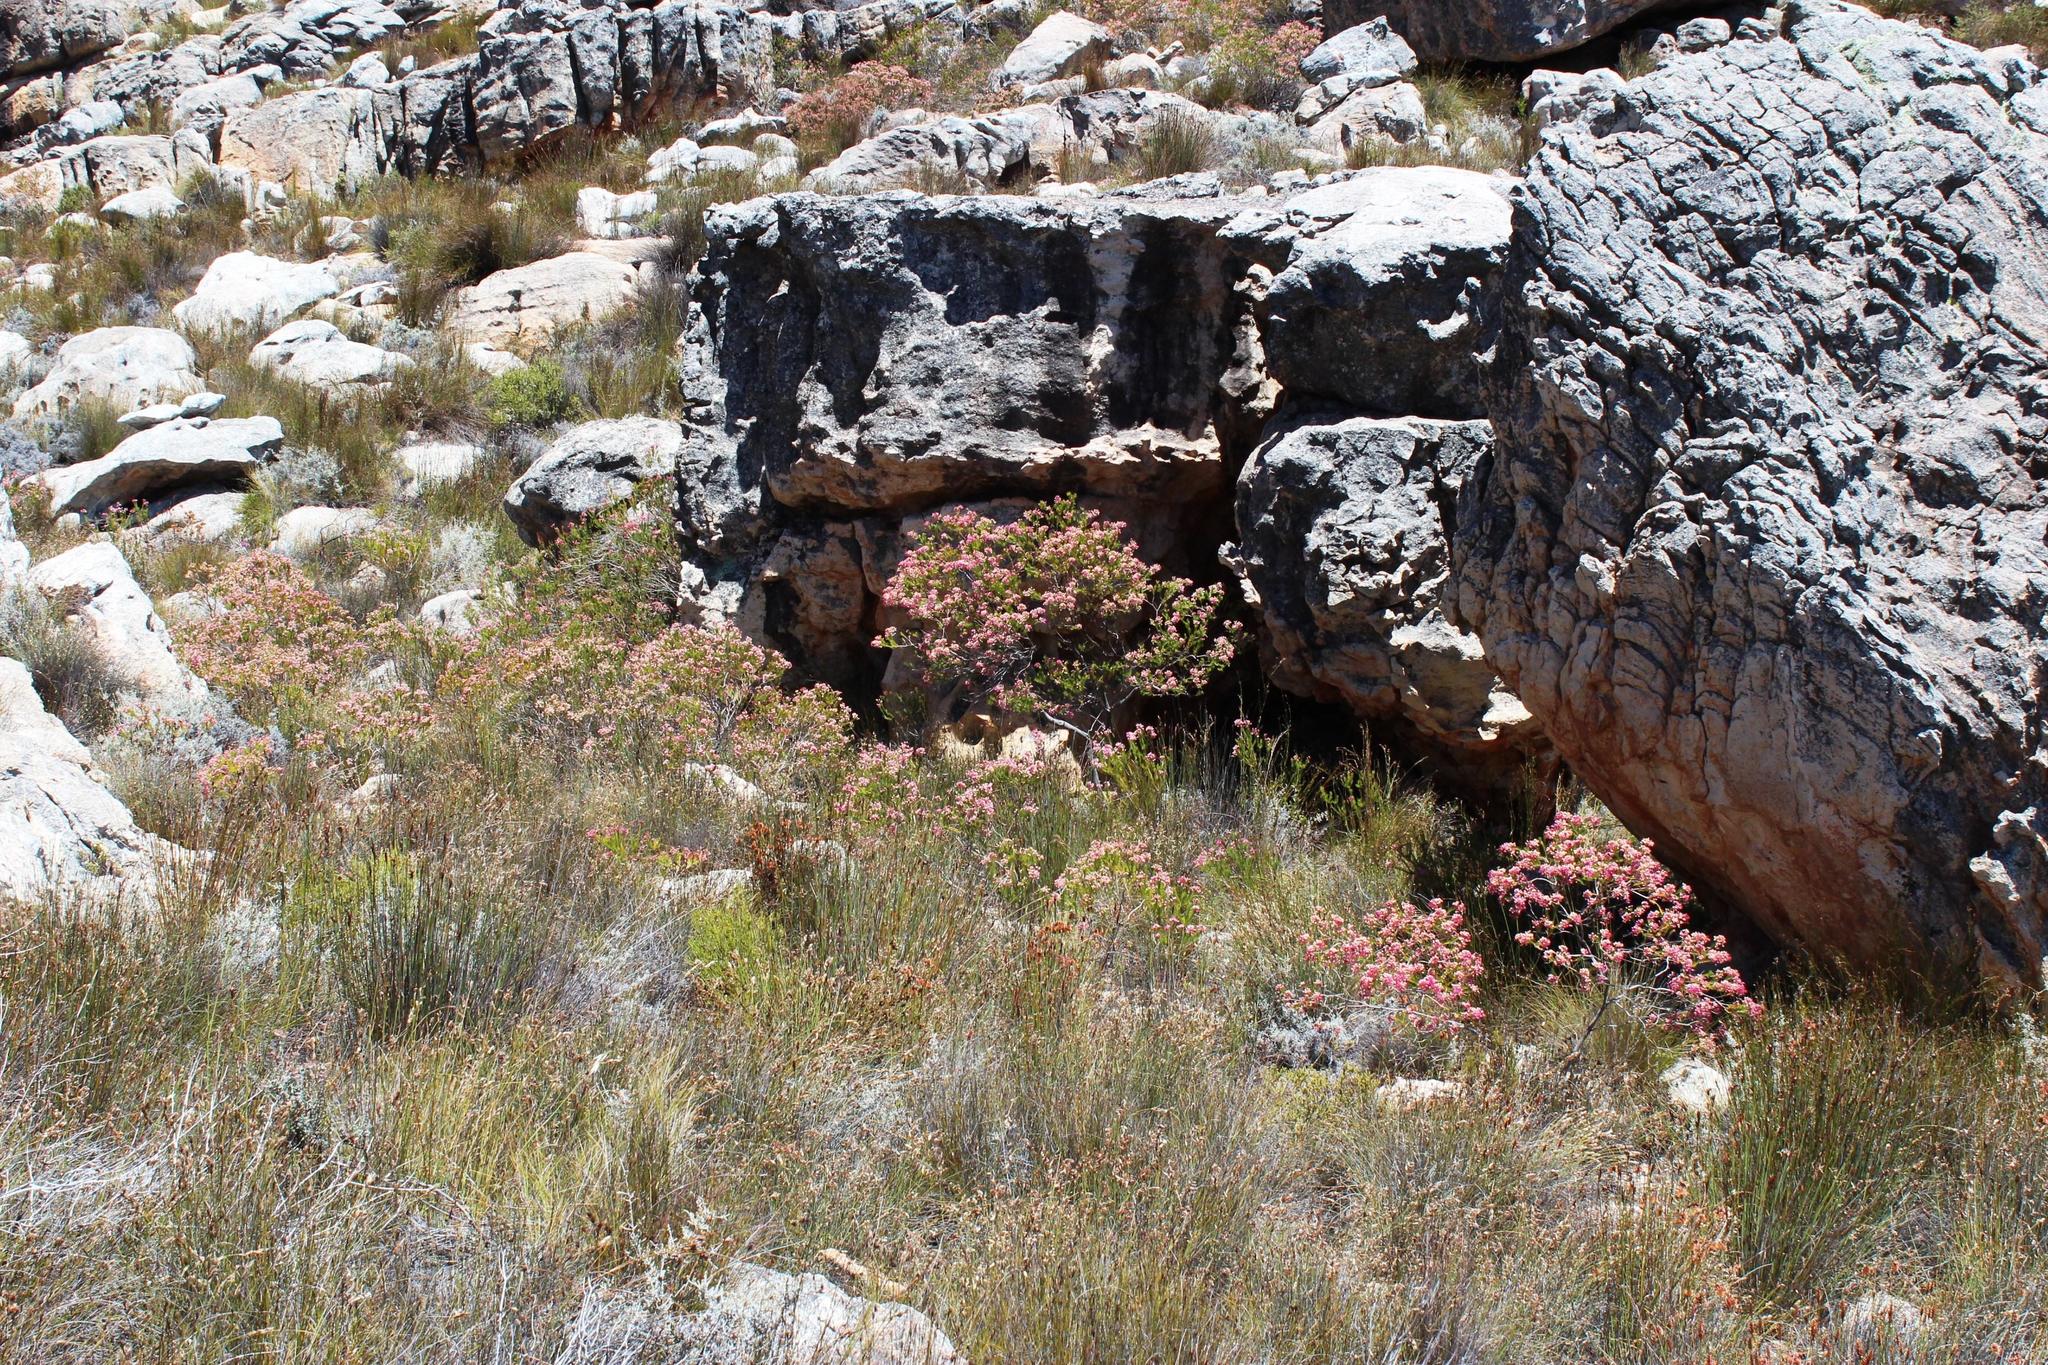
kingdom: Plantae
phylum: Tracheophyta
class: Magnoliopsida
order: Ericales
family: Ericaceae
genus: Erica
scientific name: Erica inflata
